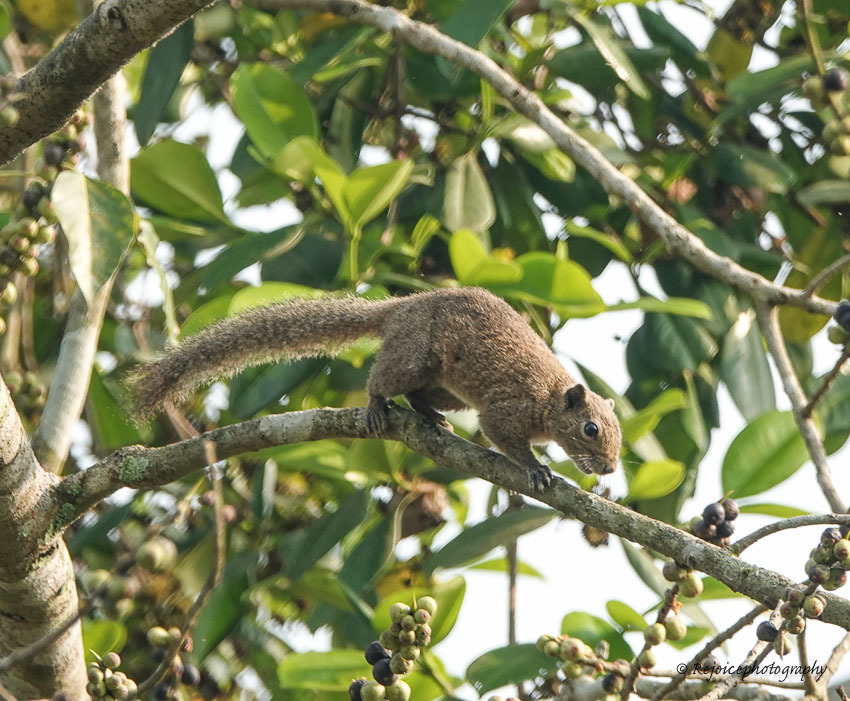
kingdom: Animalia
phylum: Chordata
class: Mammalia
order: Rodentia
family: Sciuridae
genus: Callosciurus
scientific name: Callosciurus pygerythrus
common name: Irrawaddy squirrel
